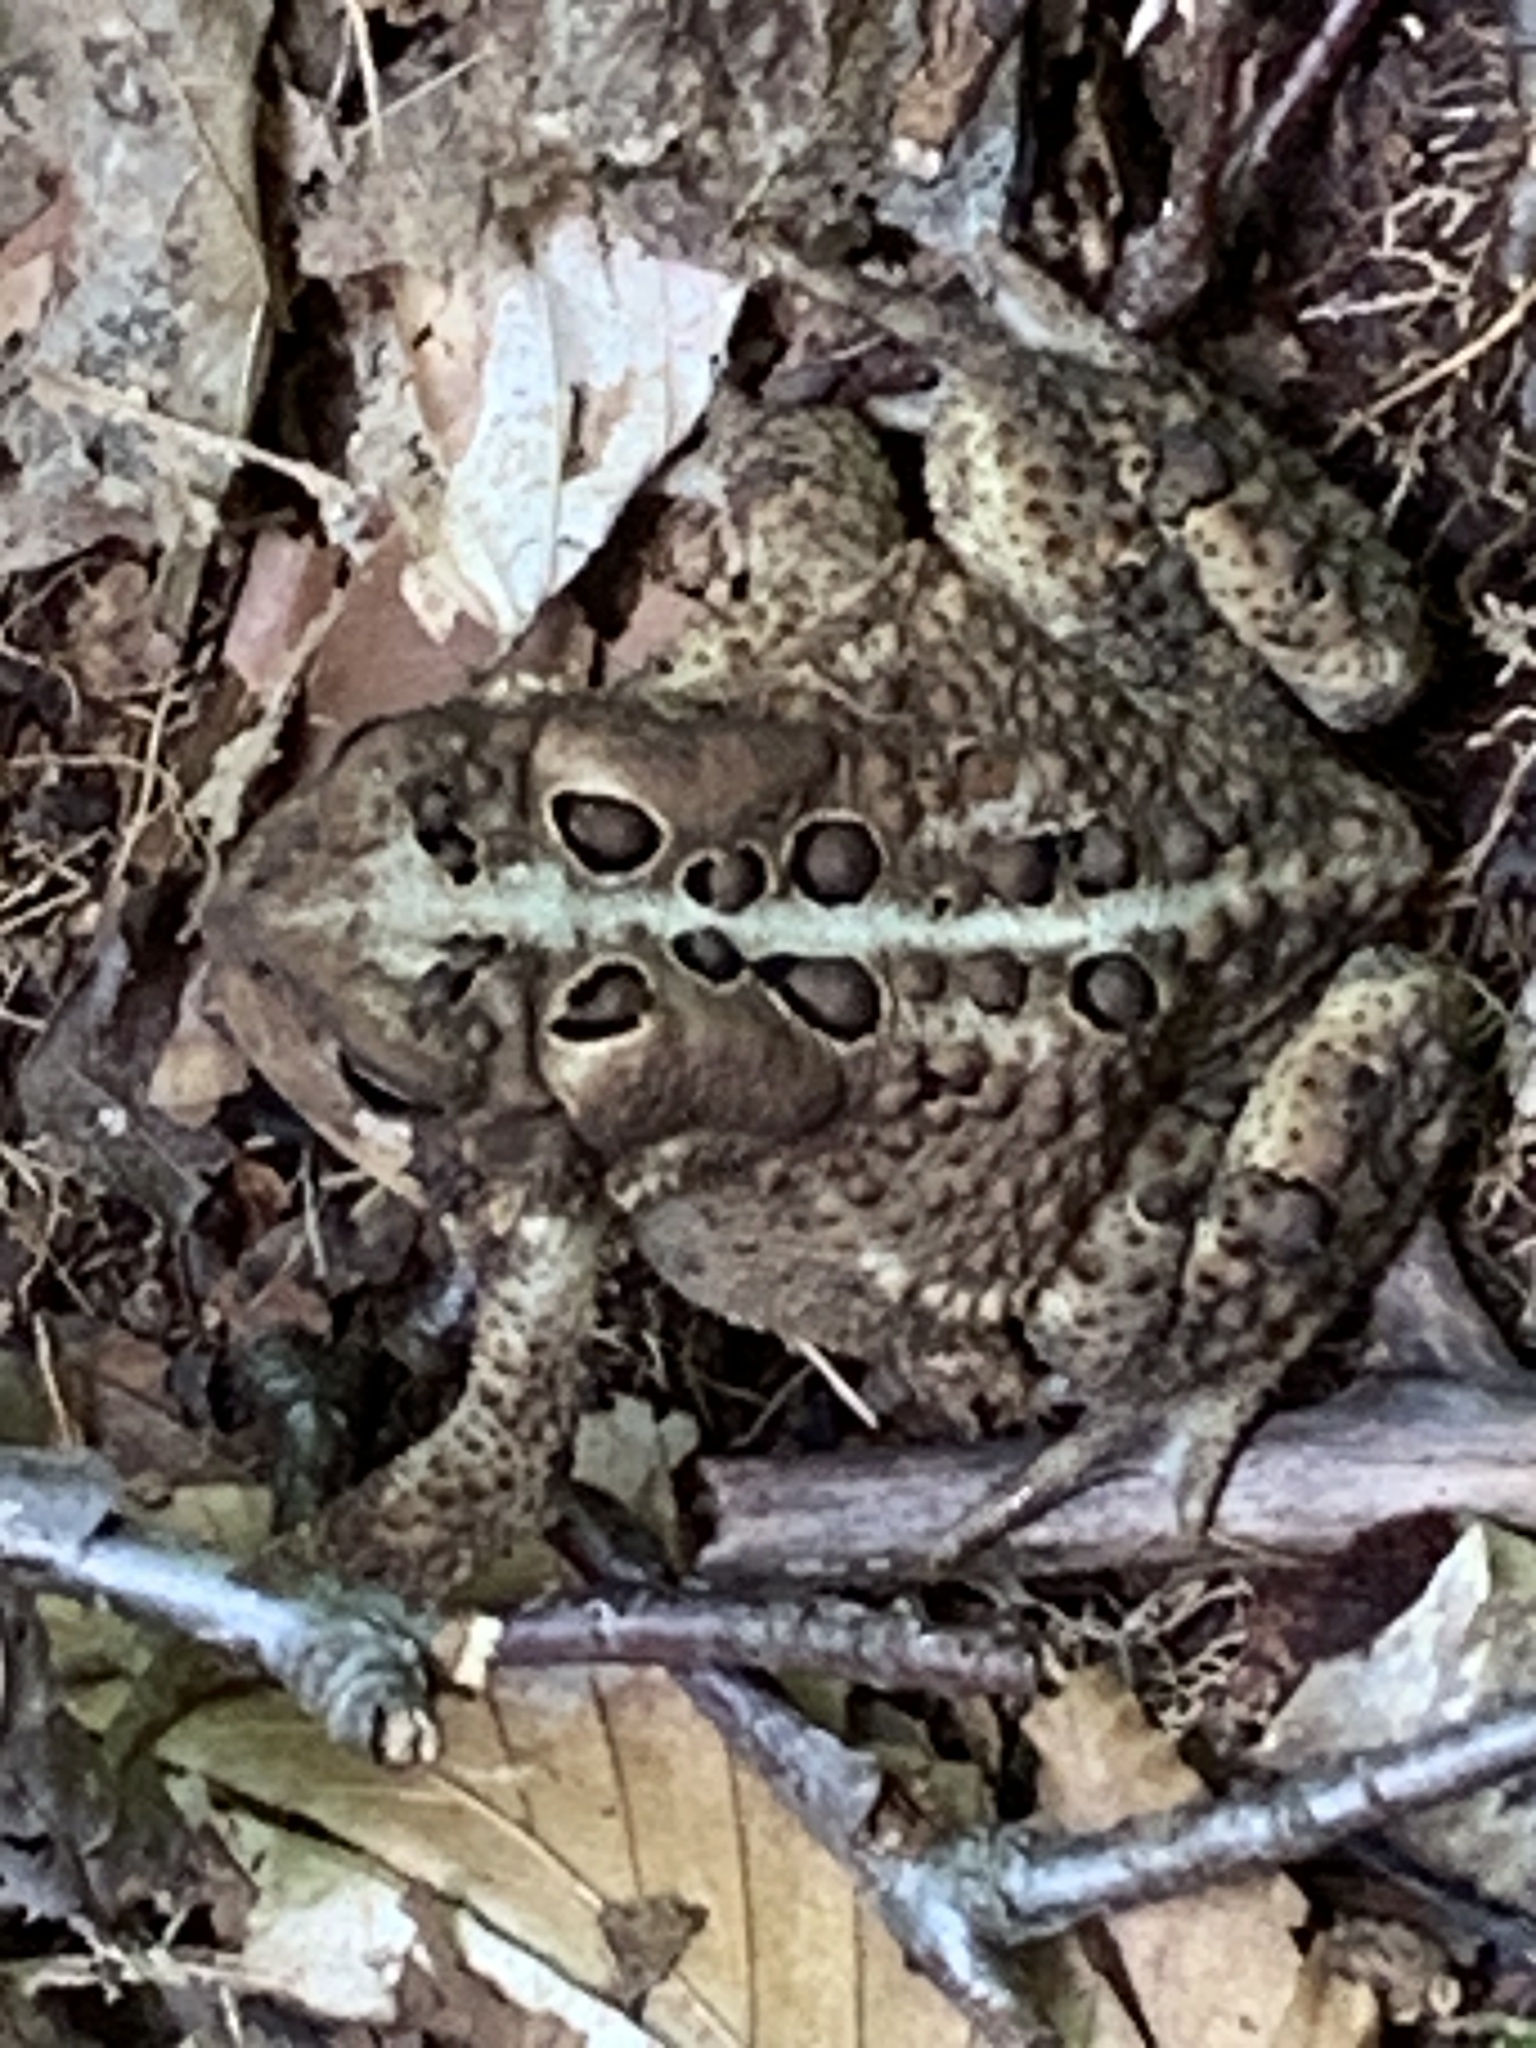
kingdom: Animalia
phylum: Chordata
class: Amphibia
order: Anura
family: Bufonidae
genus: Anaxyrus
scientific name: Anaxyrus americanus
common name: American toad
